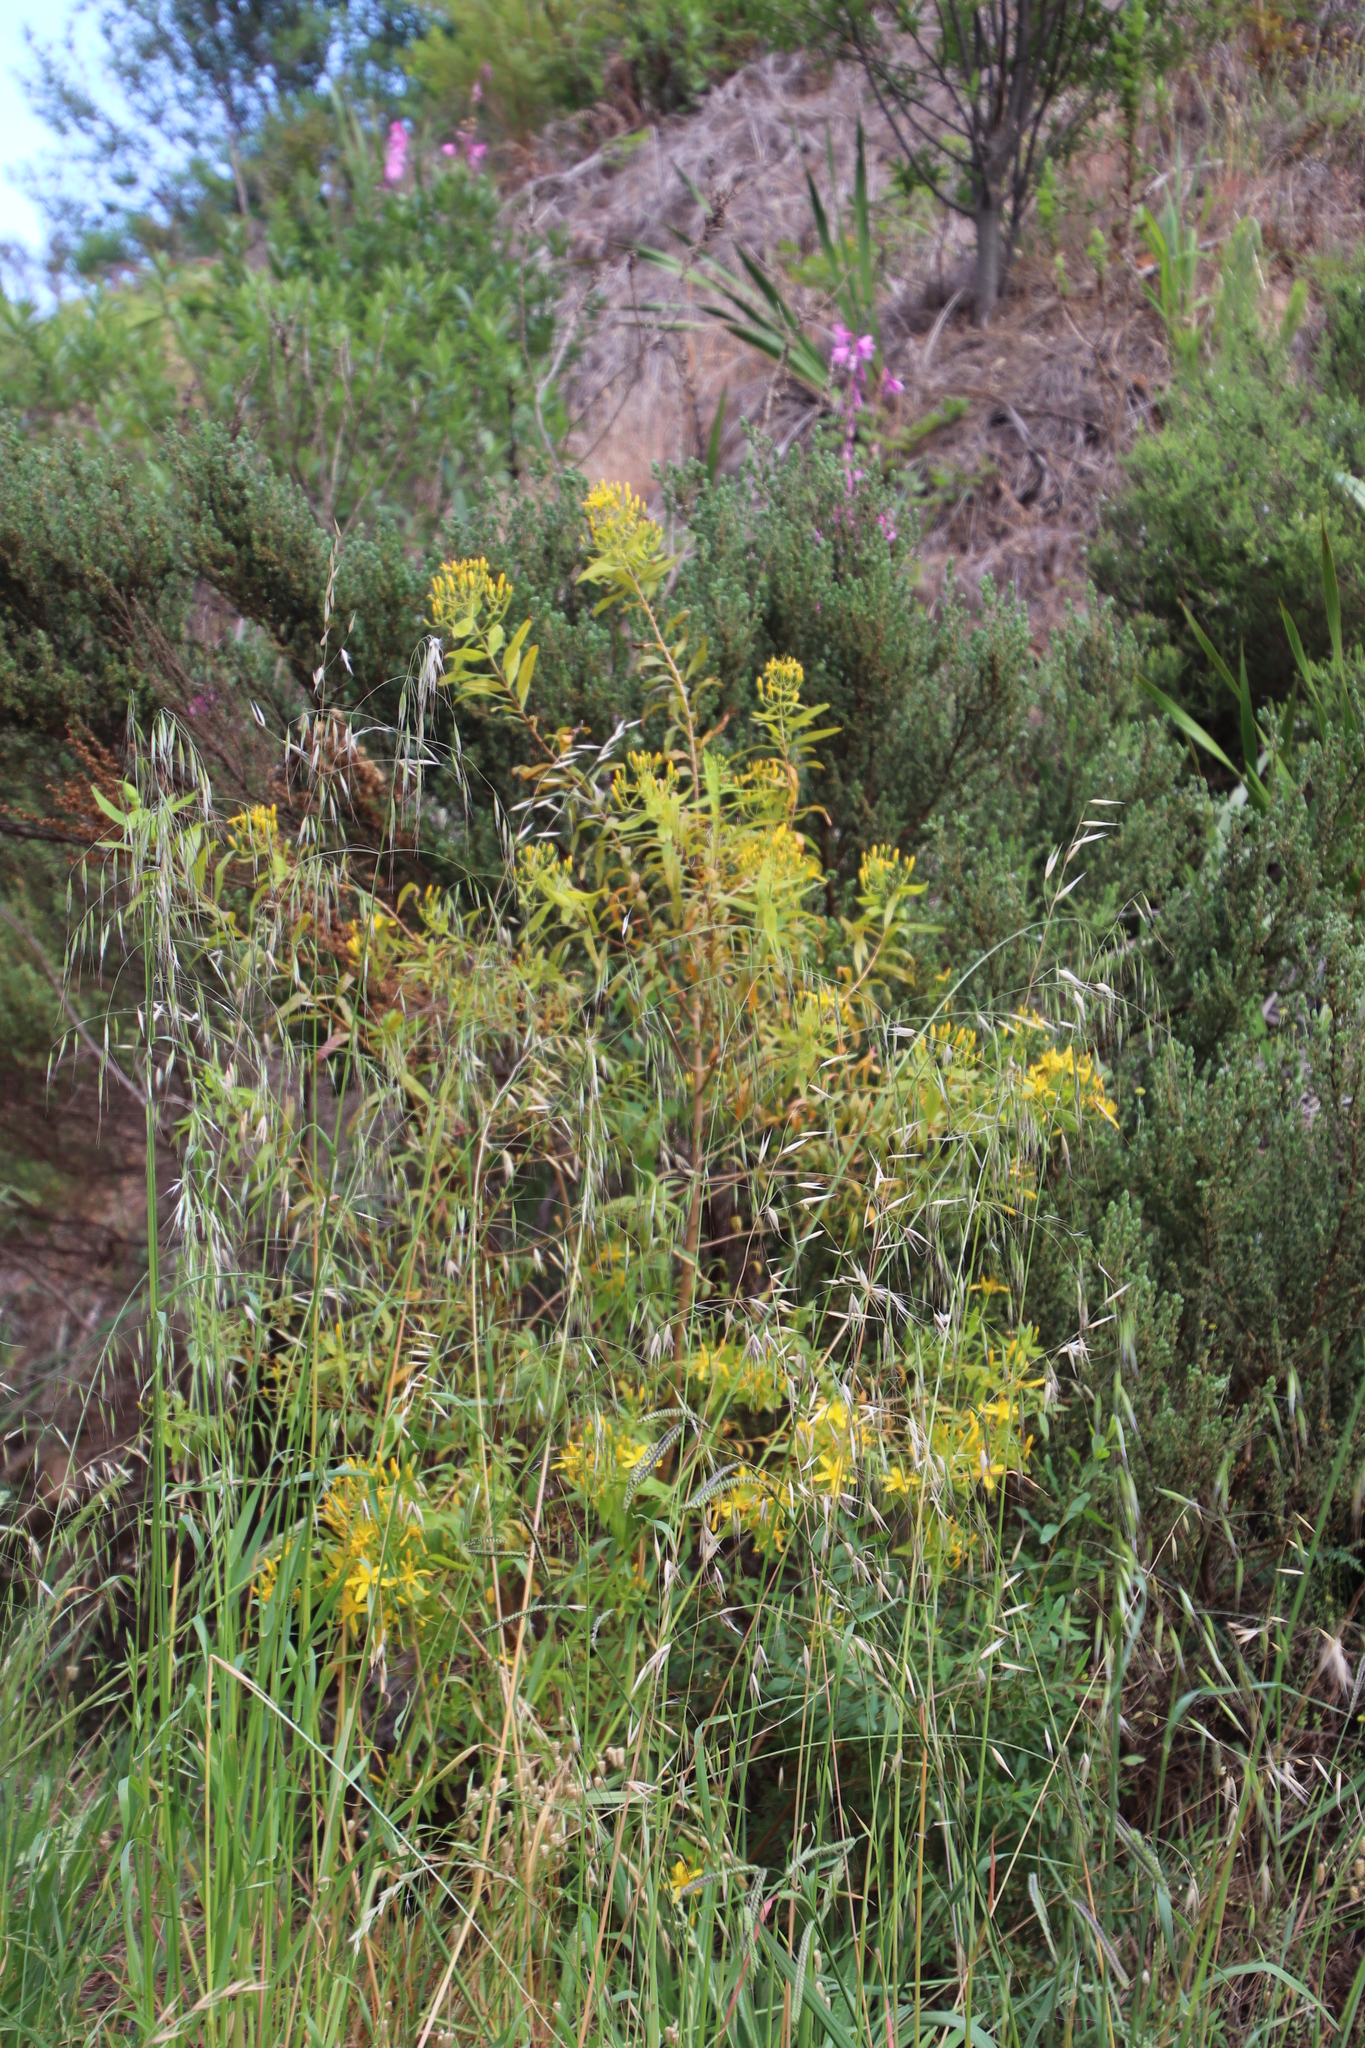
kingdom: Plantae
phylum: Tracheophyta
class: Magnoliopsida
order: Malpighiales
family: Hypericaceae
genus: Hypericum
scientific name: Hypericum canariense
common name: Canary island st. johnswort
